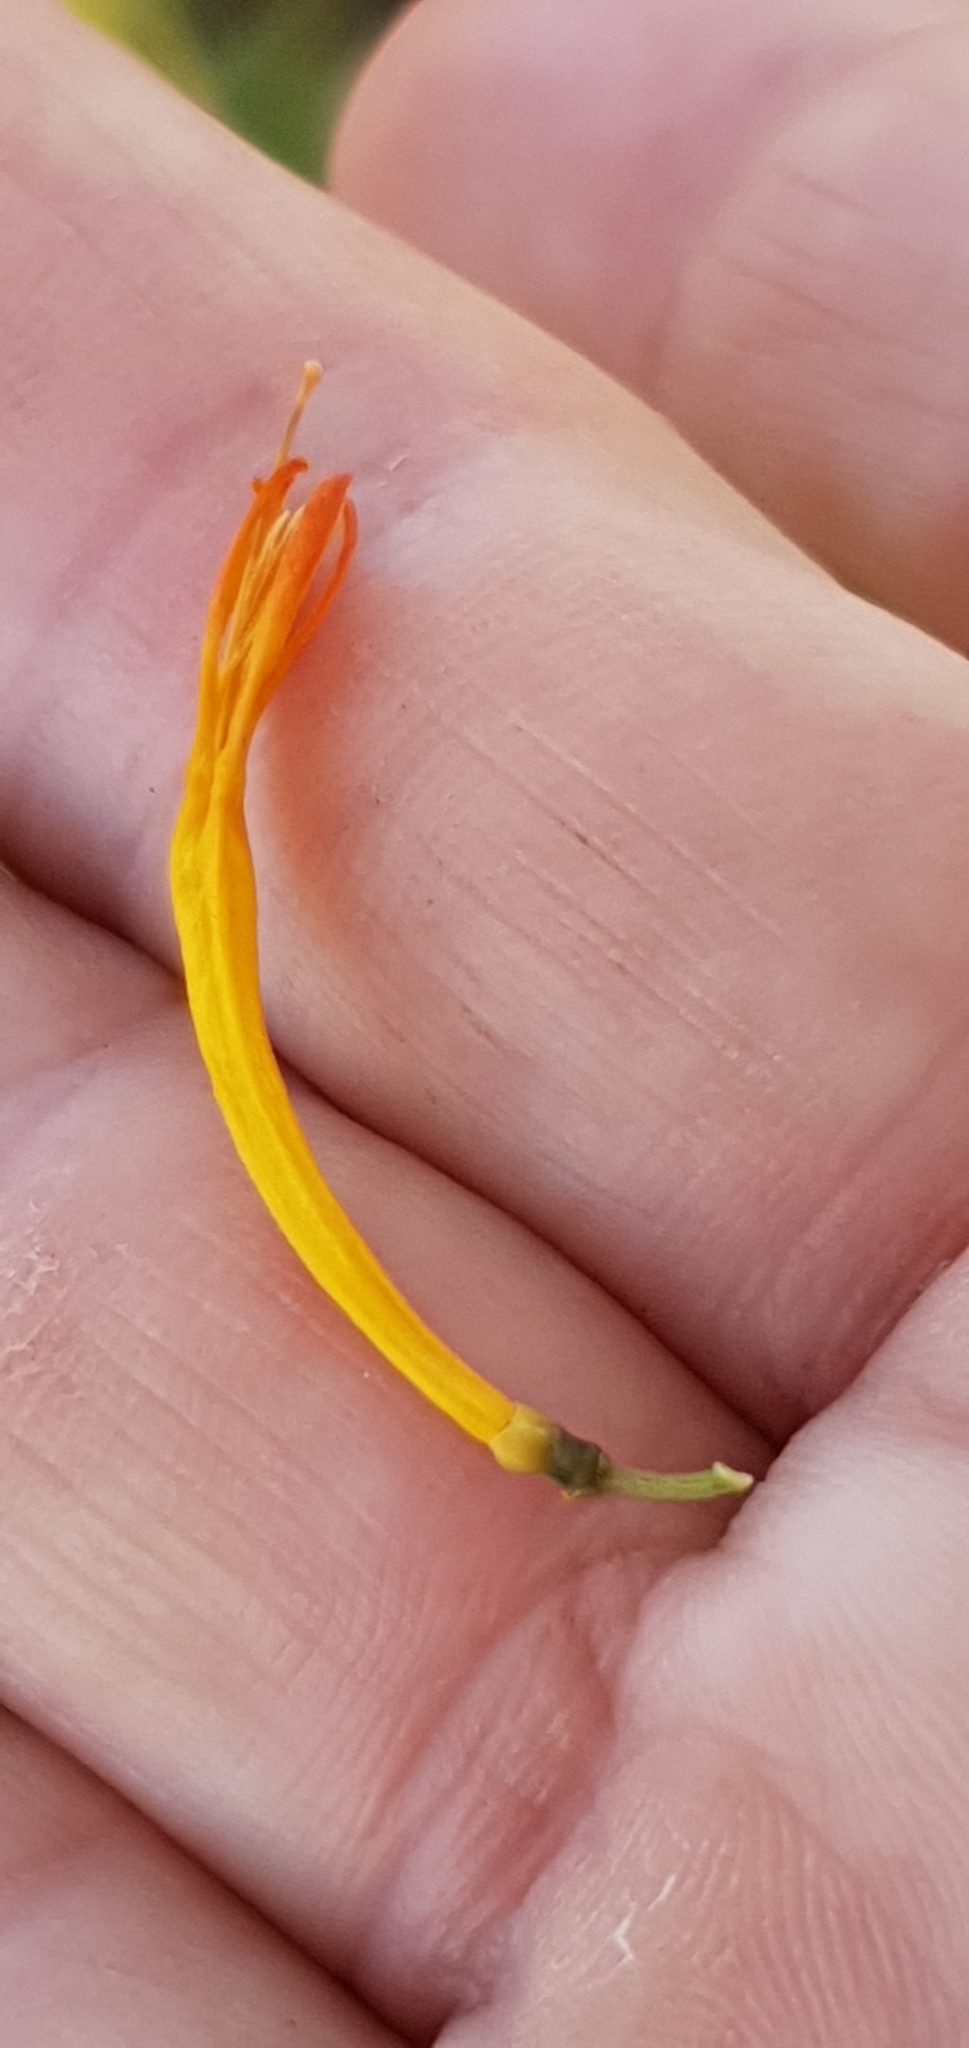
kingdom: Plantae
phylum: Tracheophyta
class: Magnoliopsida
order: Santalales
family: Loranthaceae
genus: Dendrophthoe
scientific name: Dendrophthoe glabrescens
